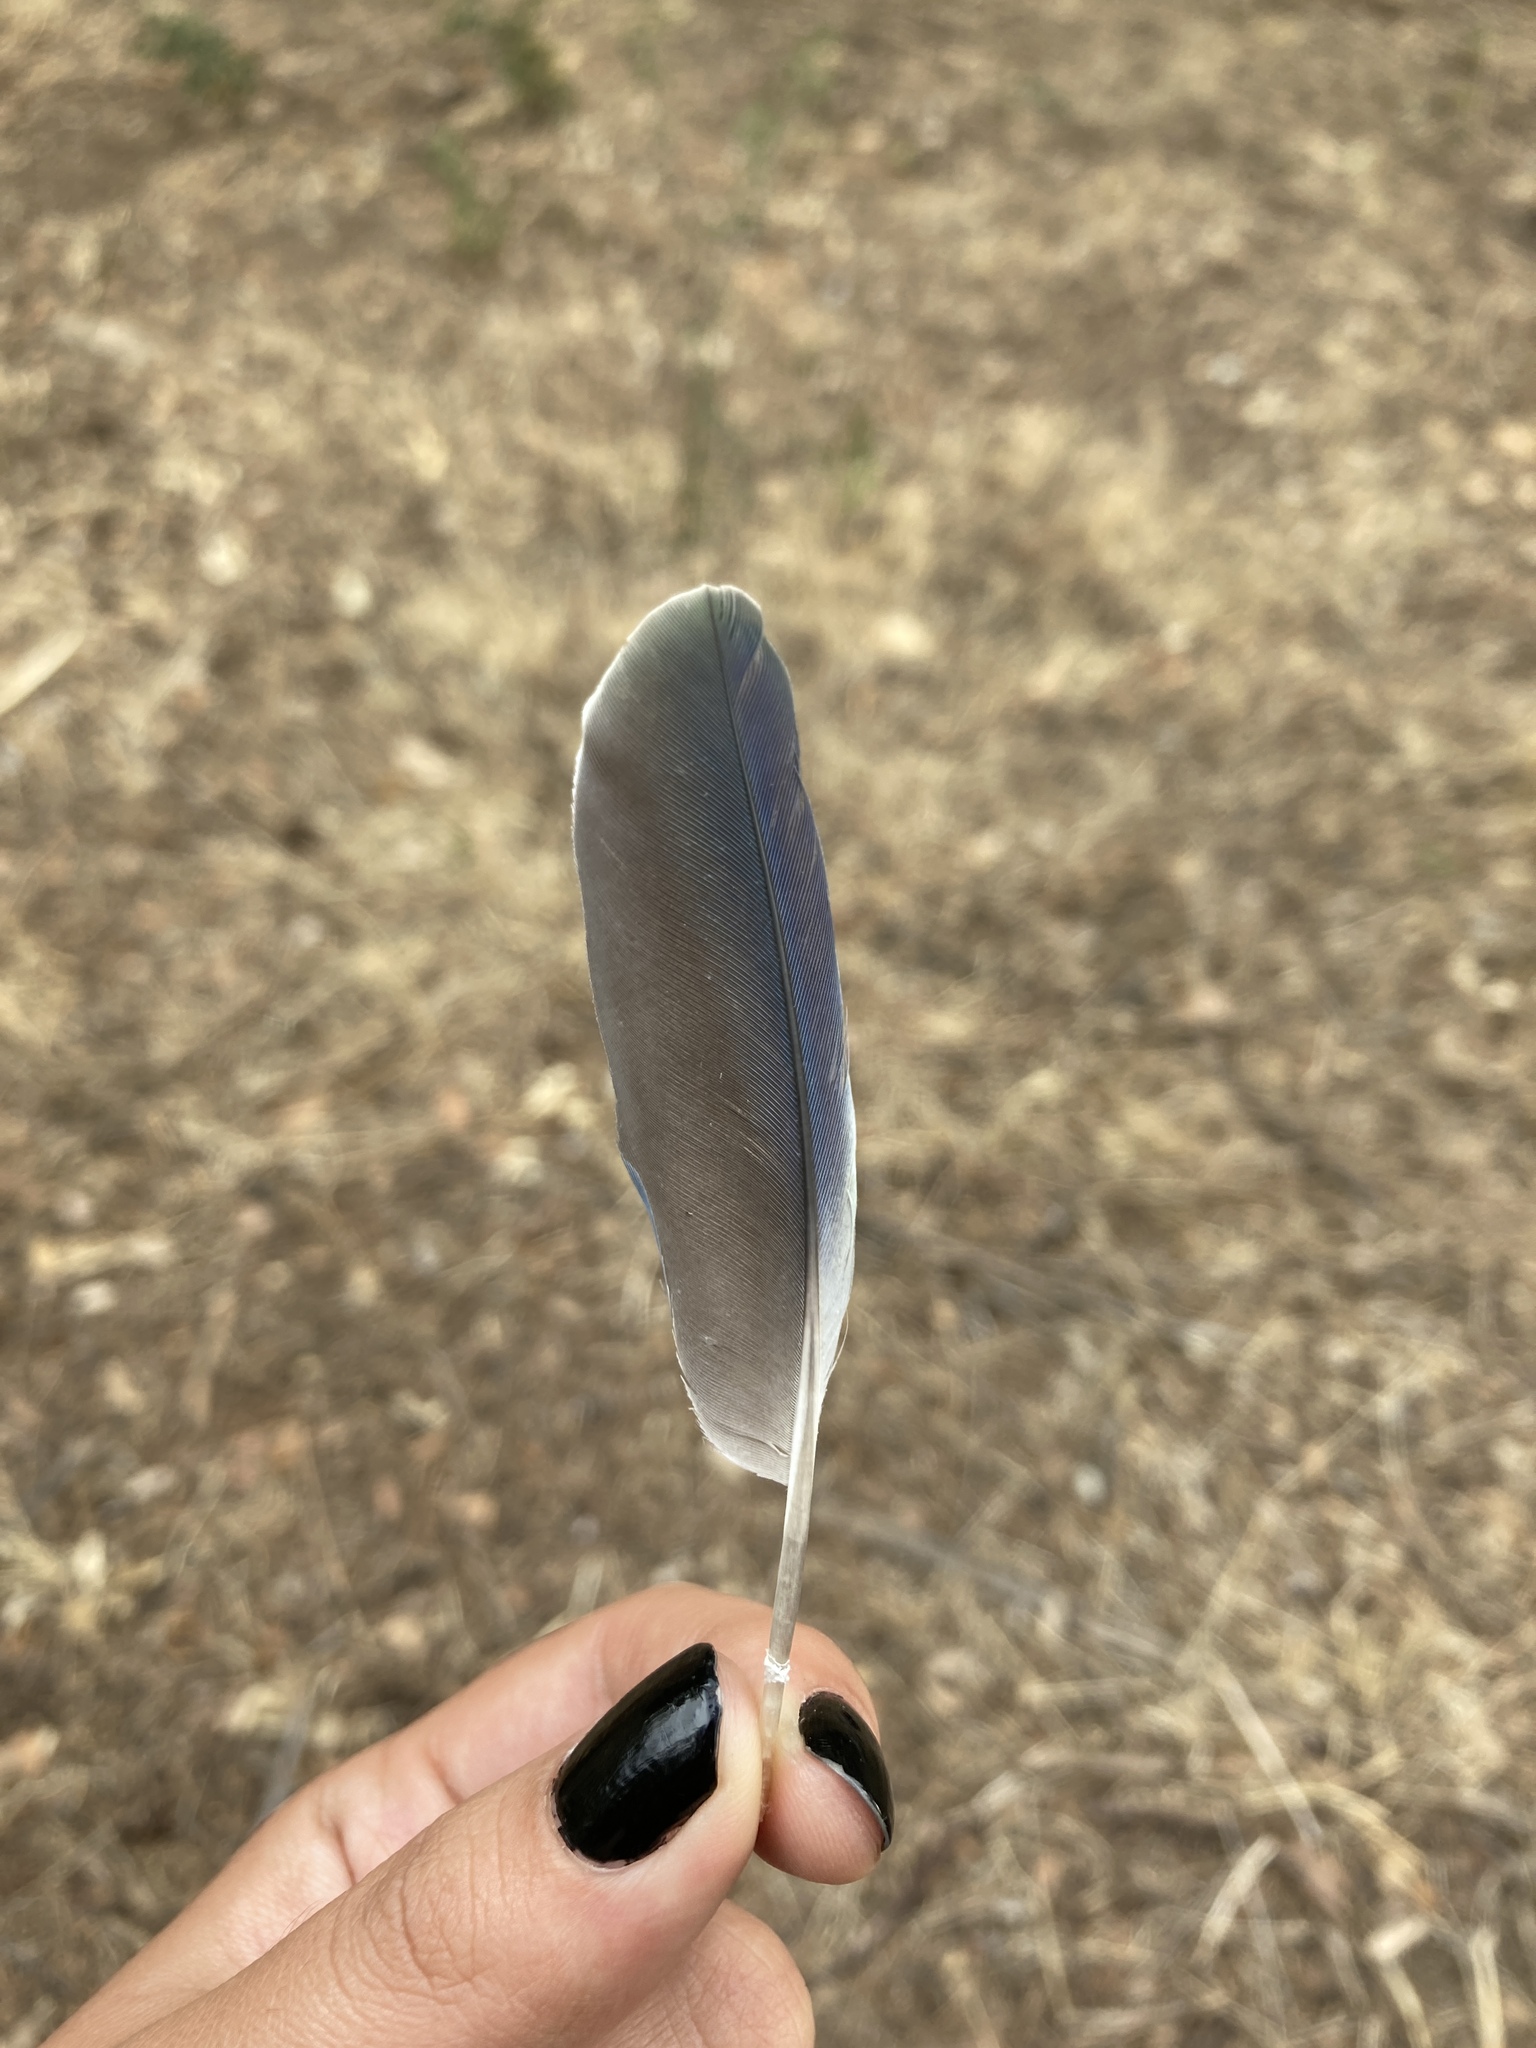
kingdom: Animalia
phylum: Chordata
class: Aves
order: Psittaciformes
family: Psittacidae
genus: Myiopsitta
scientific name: Myiopsitta monachus
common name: Monk parakeet
